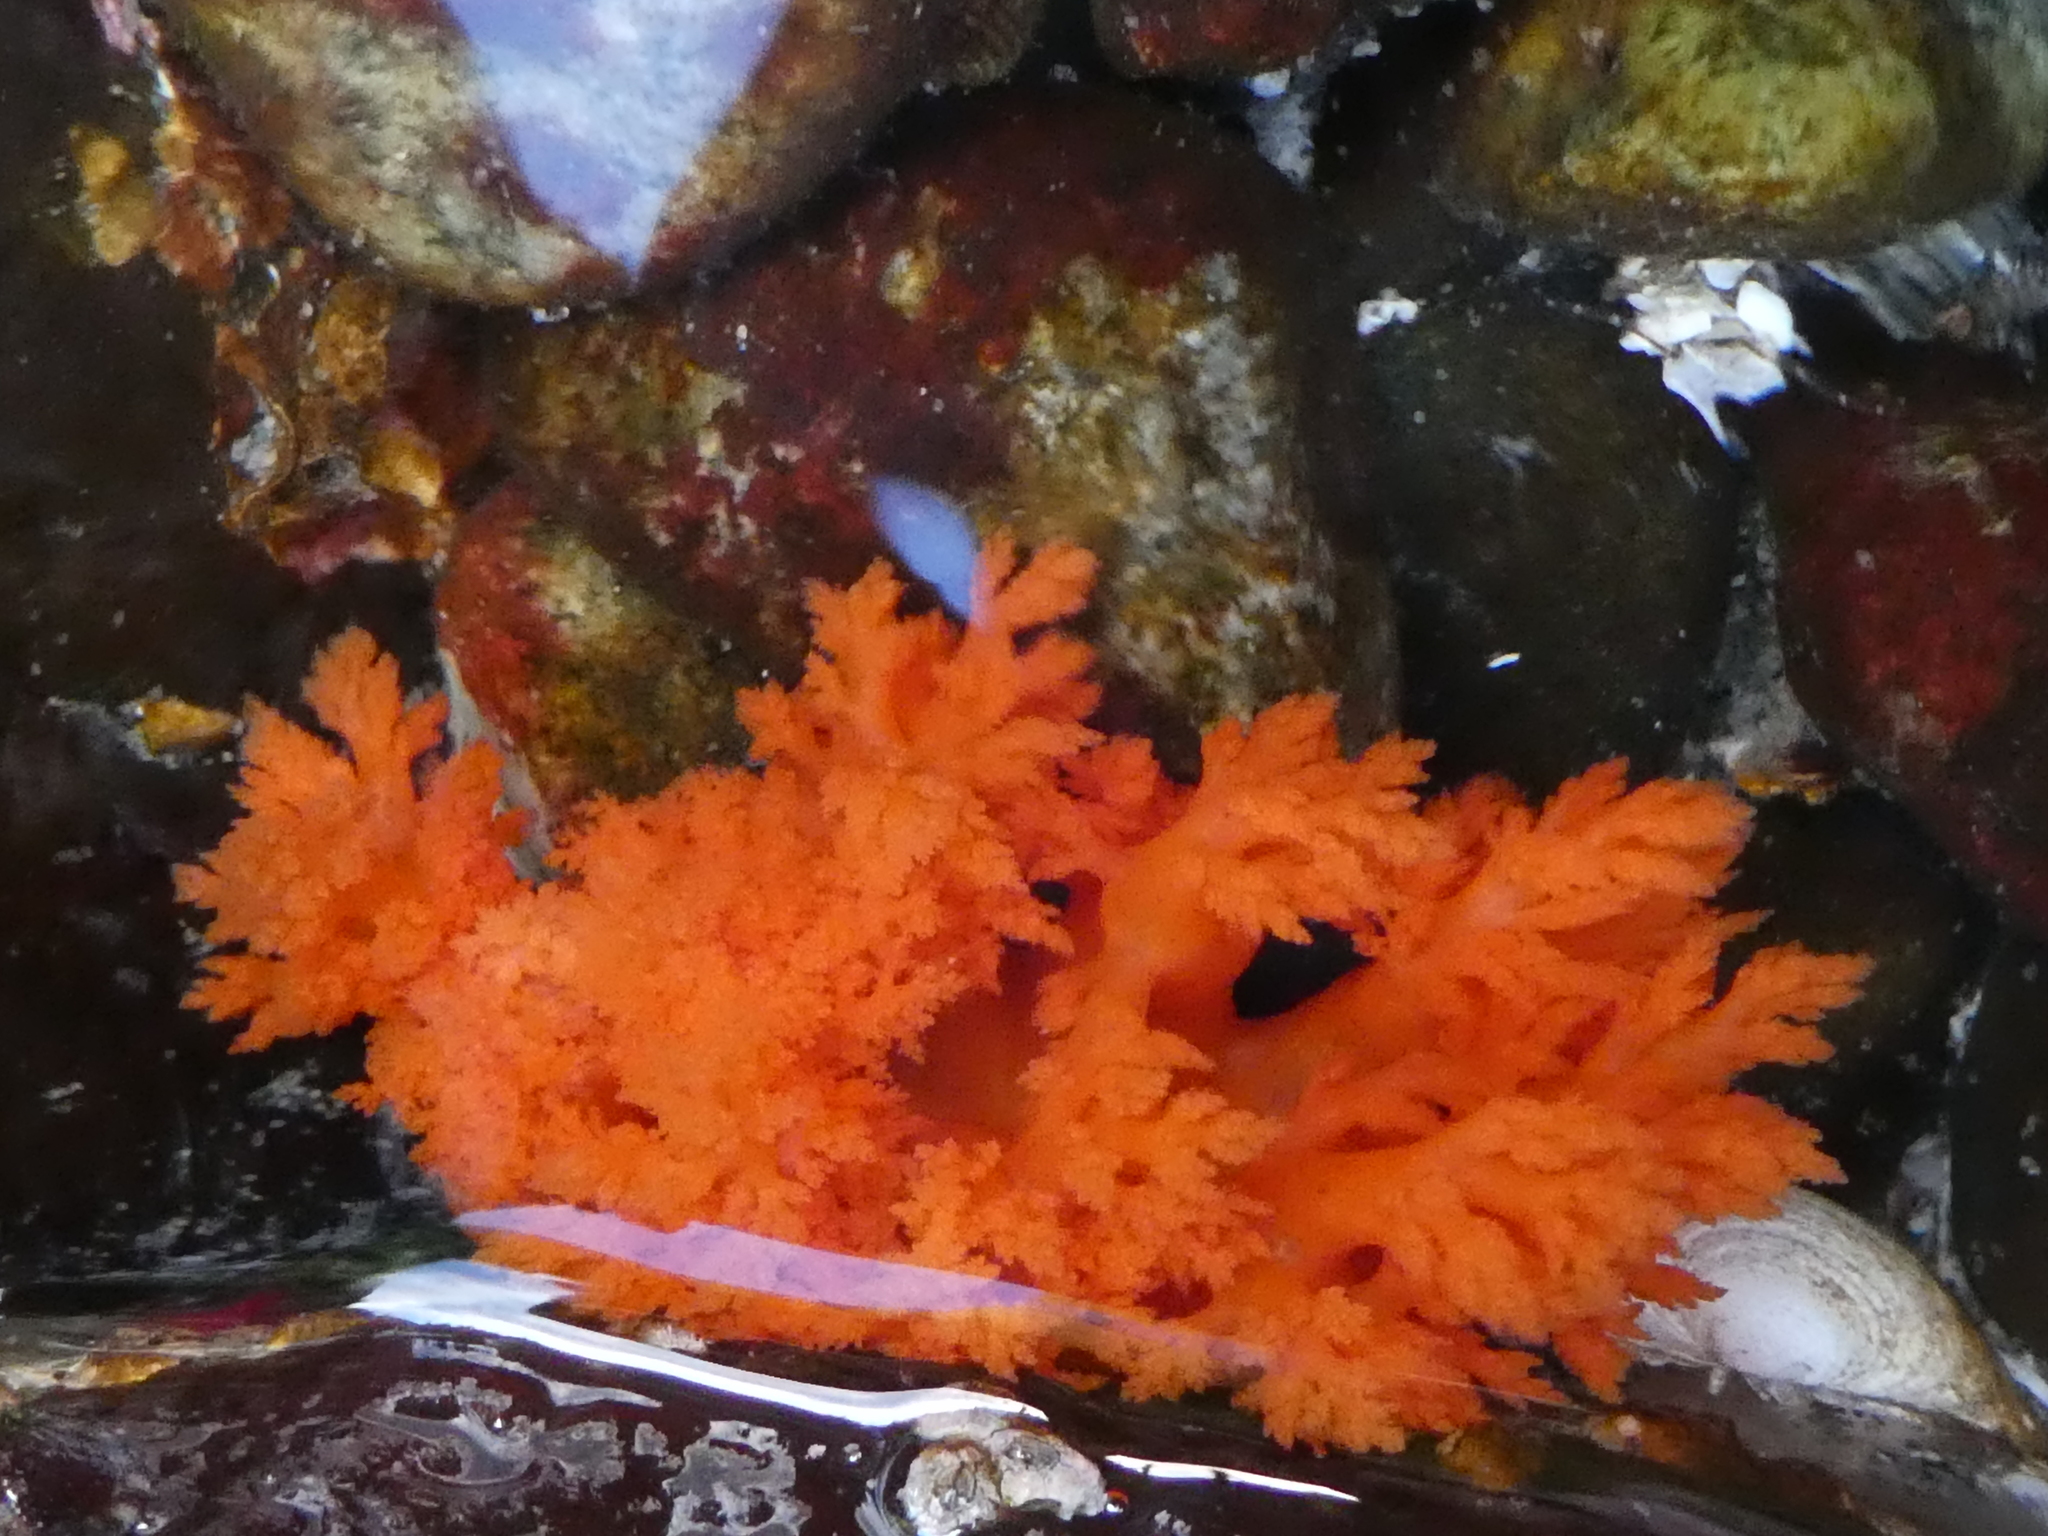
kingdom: Animalia
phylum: Echinodermata
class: Holothuroidea
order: Dendrochirotida
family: Cucumariidae
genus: Cucumaria
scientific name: Cucumaria miniata
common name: Orange sea cucumber
